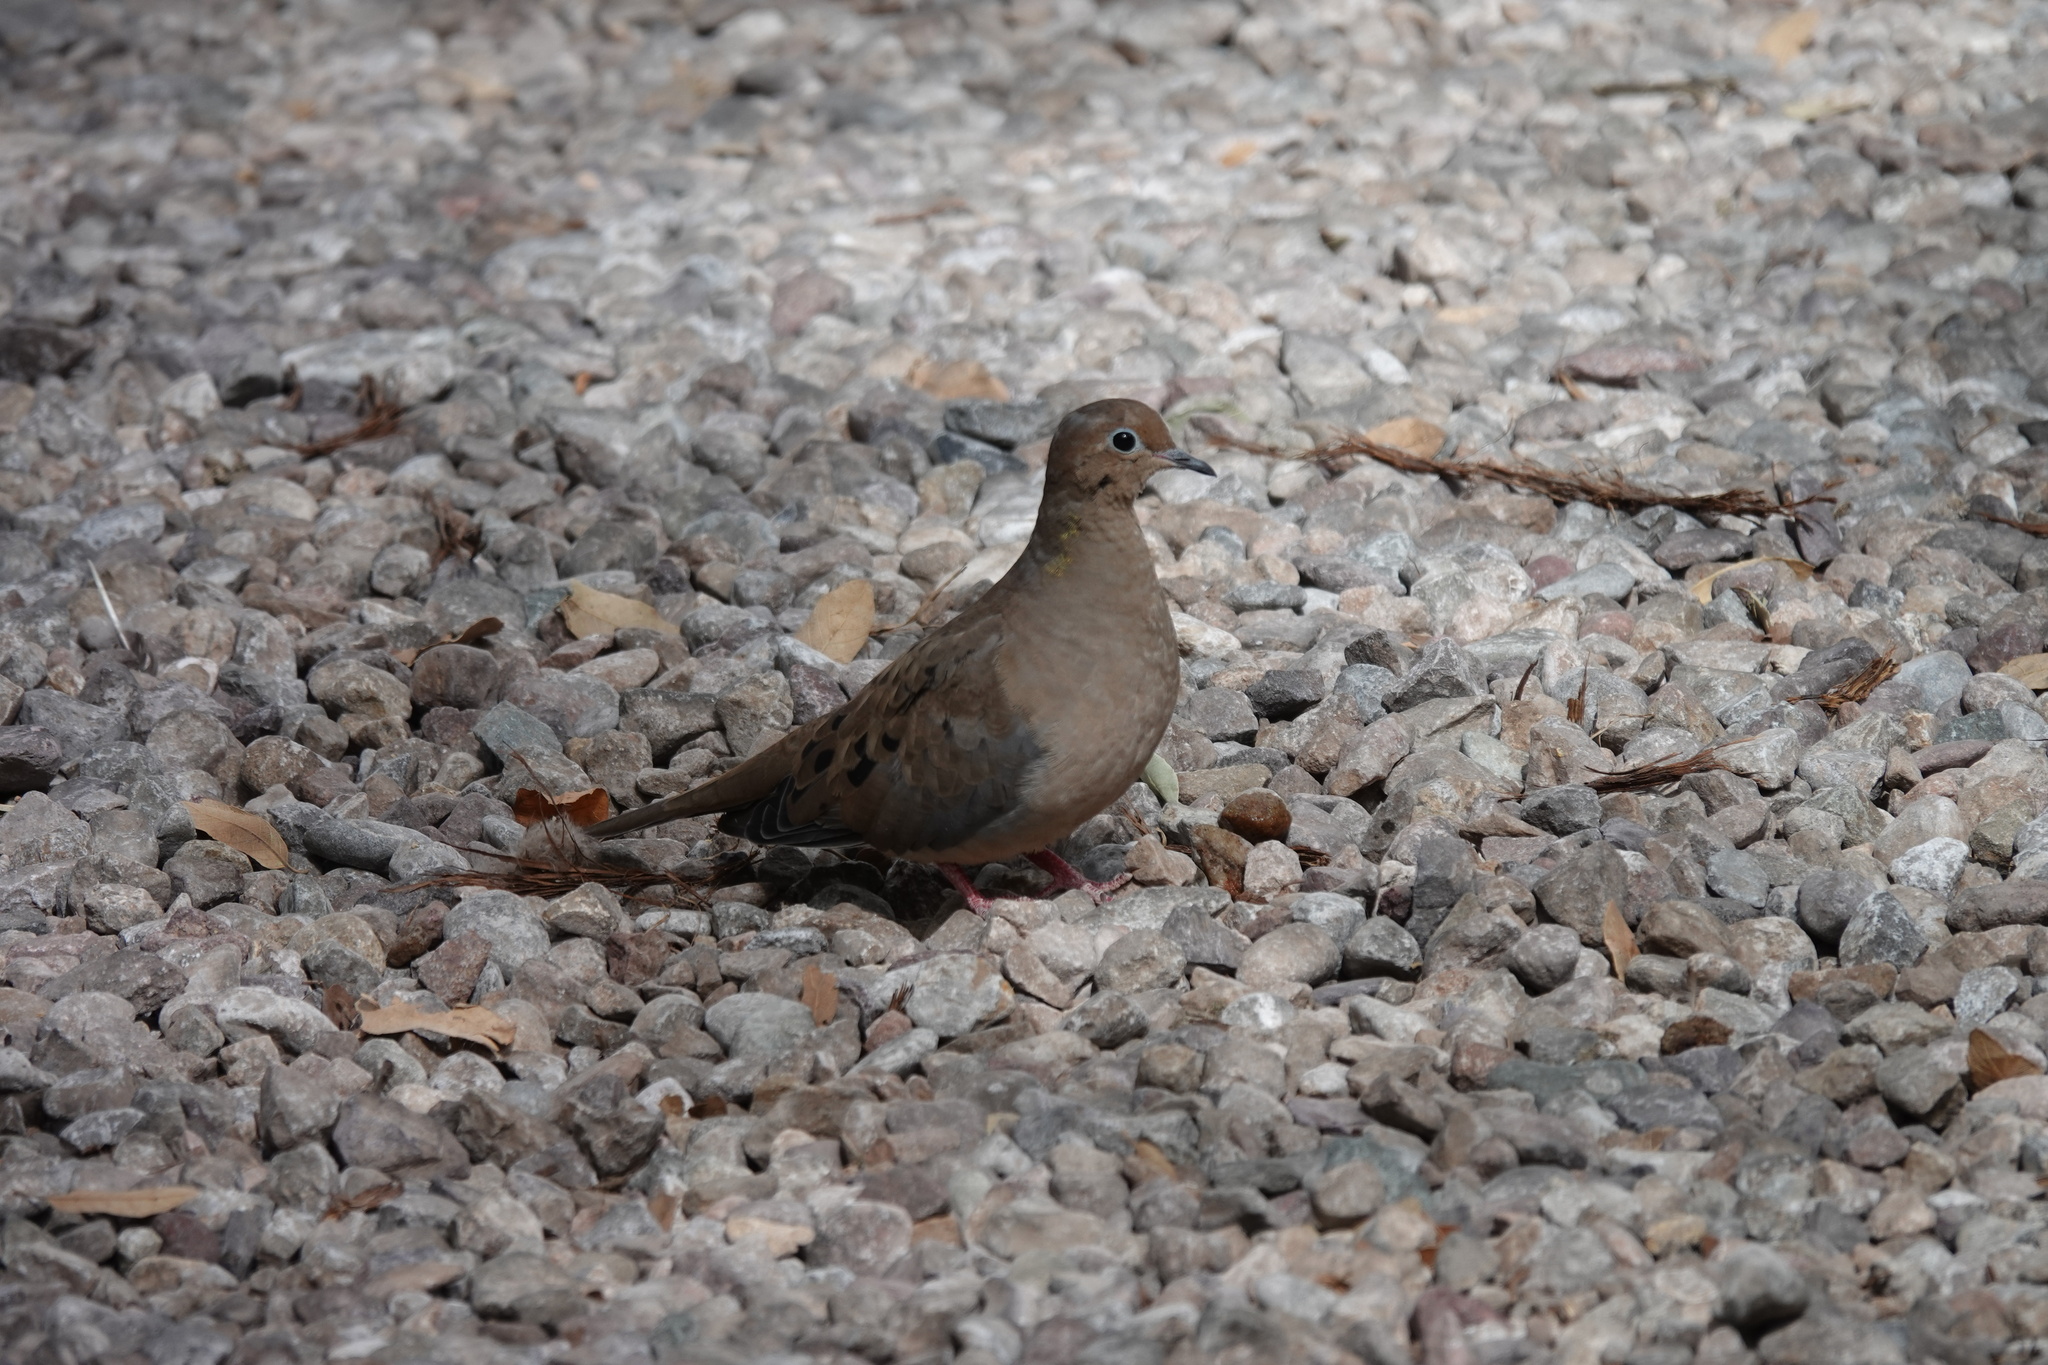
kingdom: Animalia
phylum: Chordata
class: Aves
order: Columbiformes
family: Columbidae
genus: Zenaida
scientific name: Zenaida macroura
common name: Mourning dove
